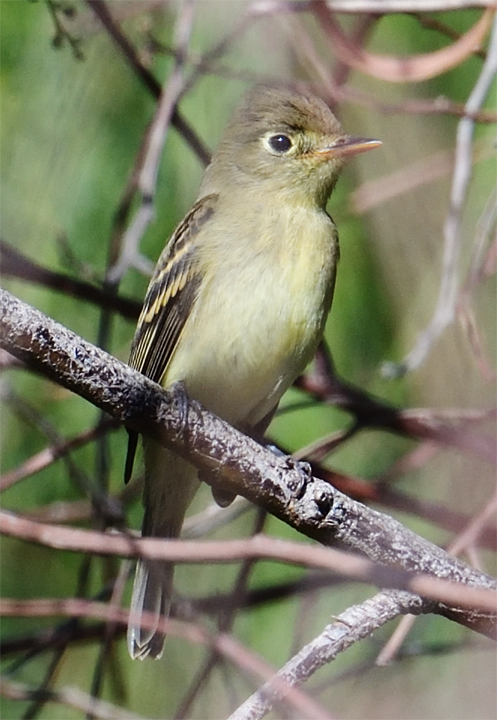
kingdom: Animalia
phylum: Chordata
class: Aves
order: Passeriformes
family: Tyrannidae
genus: Empidonax
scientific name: Empidonax difficilis
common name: Pacific-slope flycatcher
